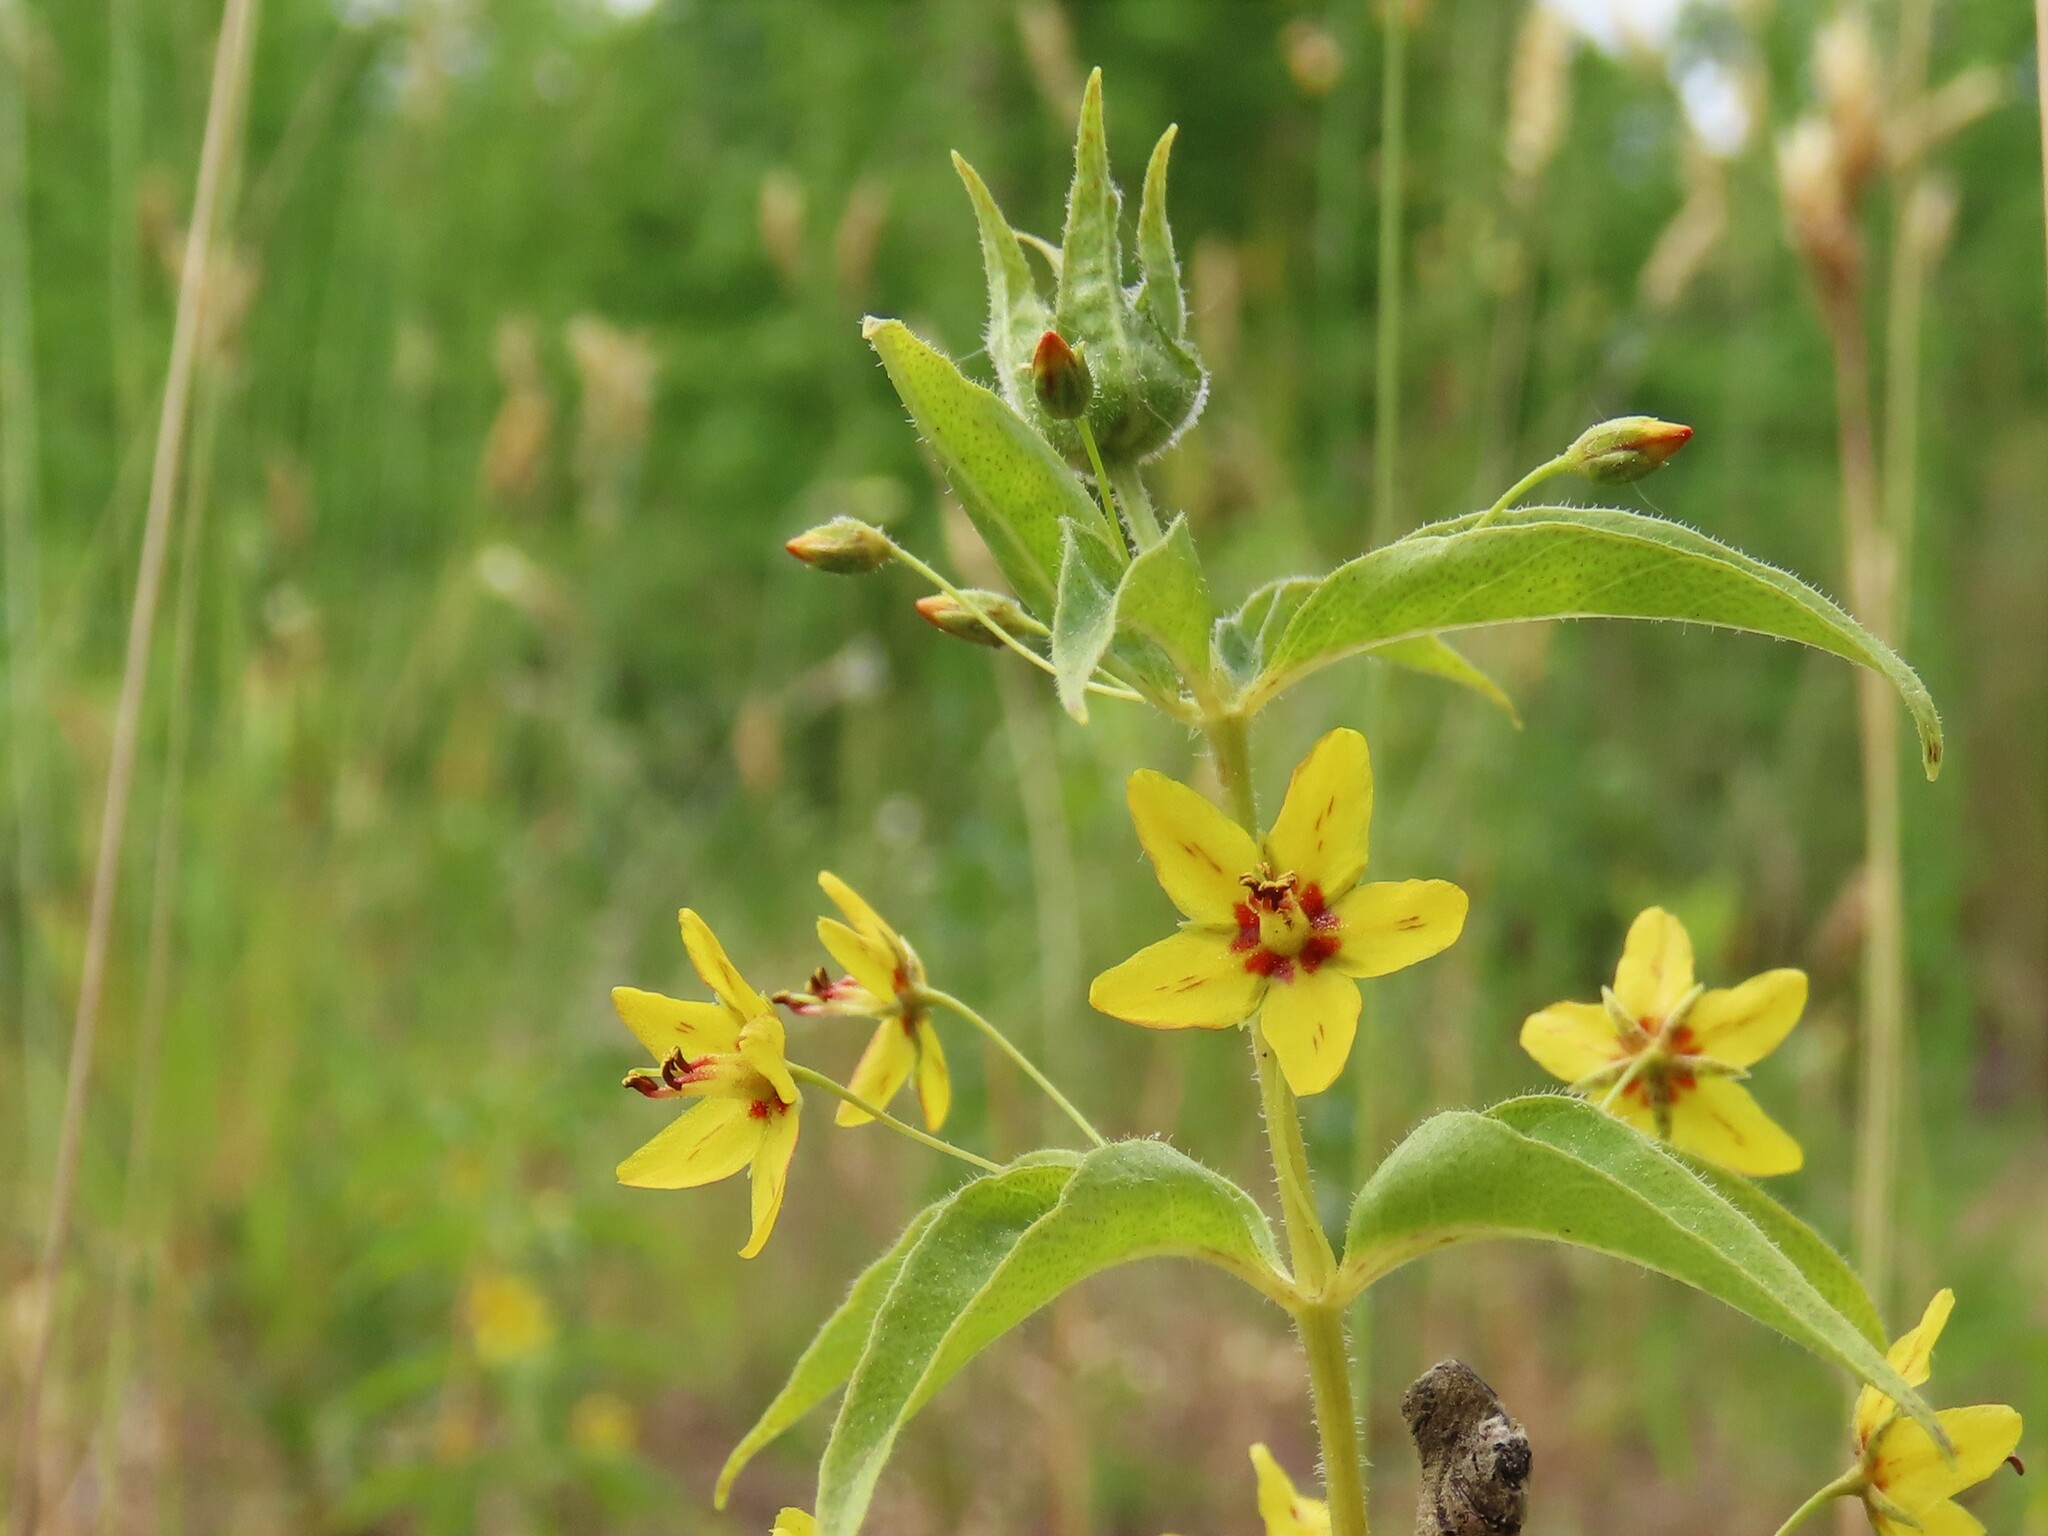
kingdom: Plantae
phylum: Tracheophyta
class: Magnoliopsida
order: Ericales
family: Primulaceae
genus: Lysimachia
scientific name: Lysimachia quadrifolia
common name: Whorled loosestrife
